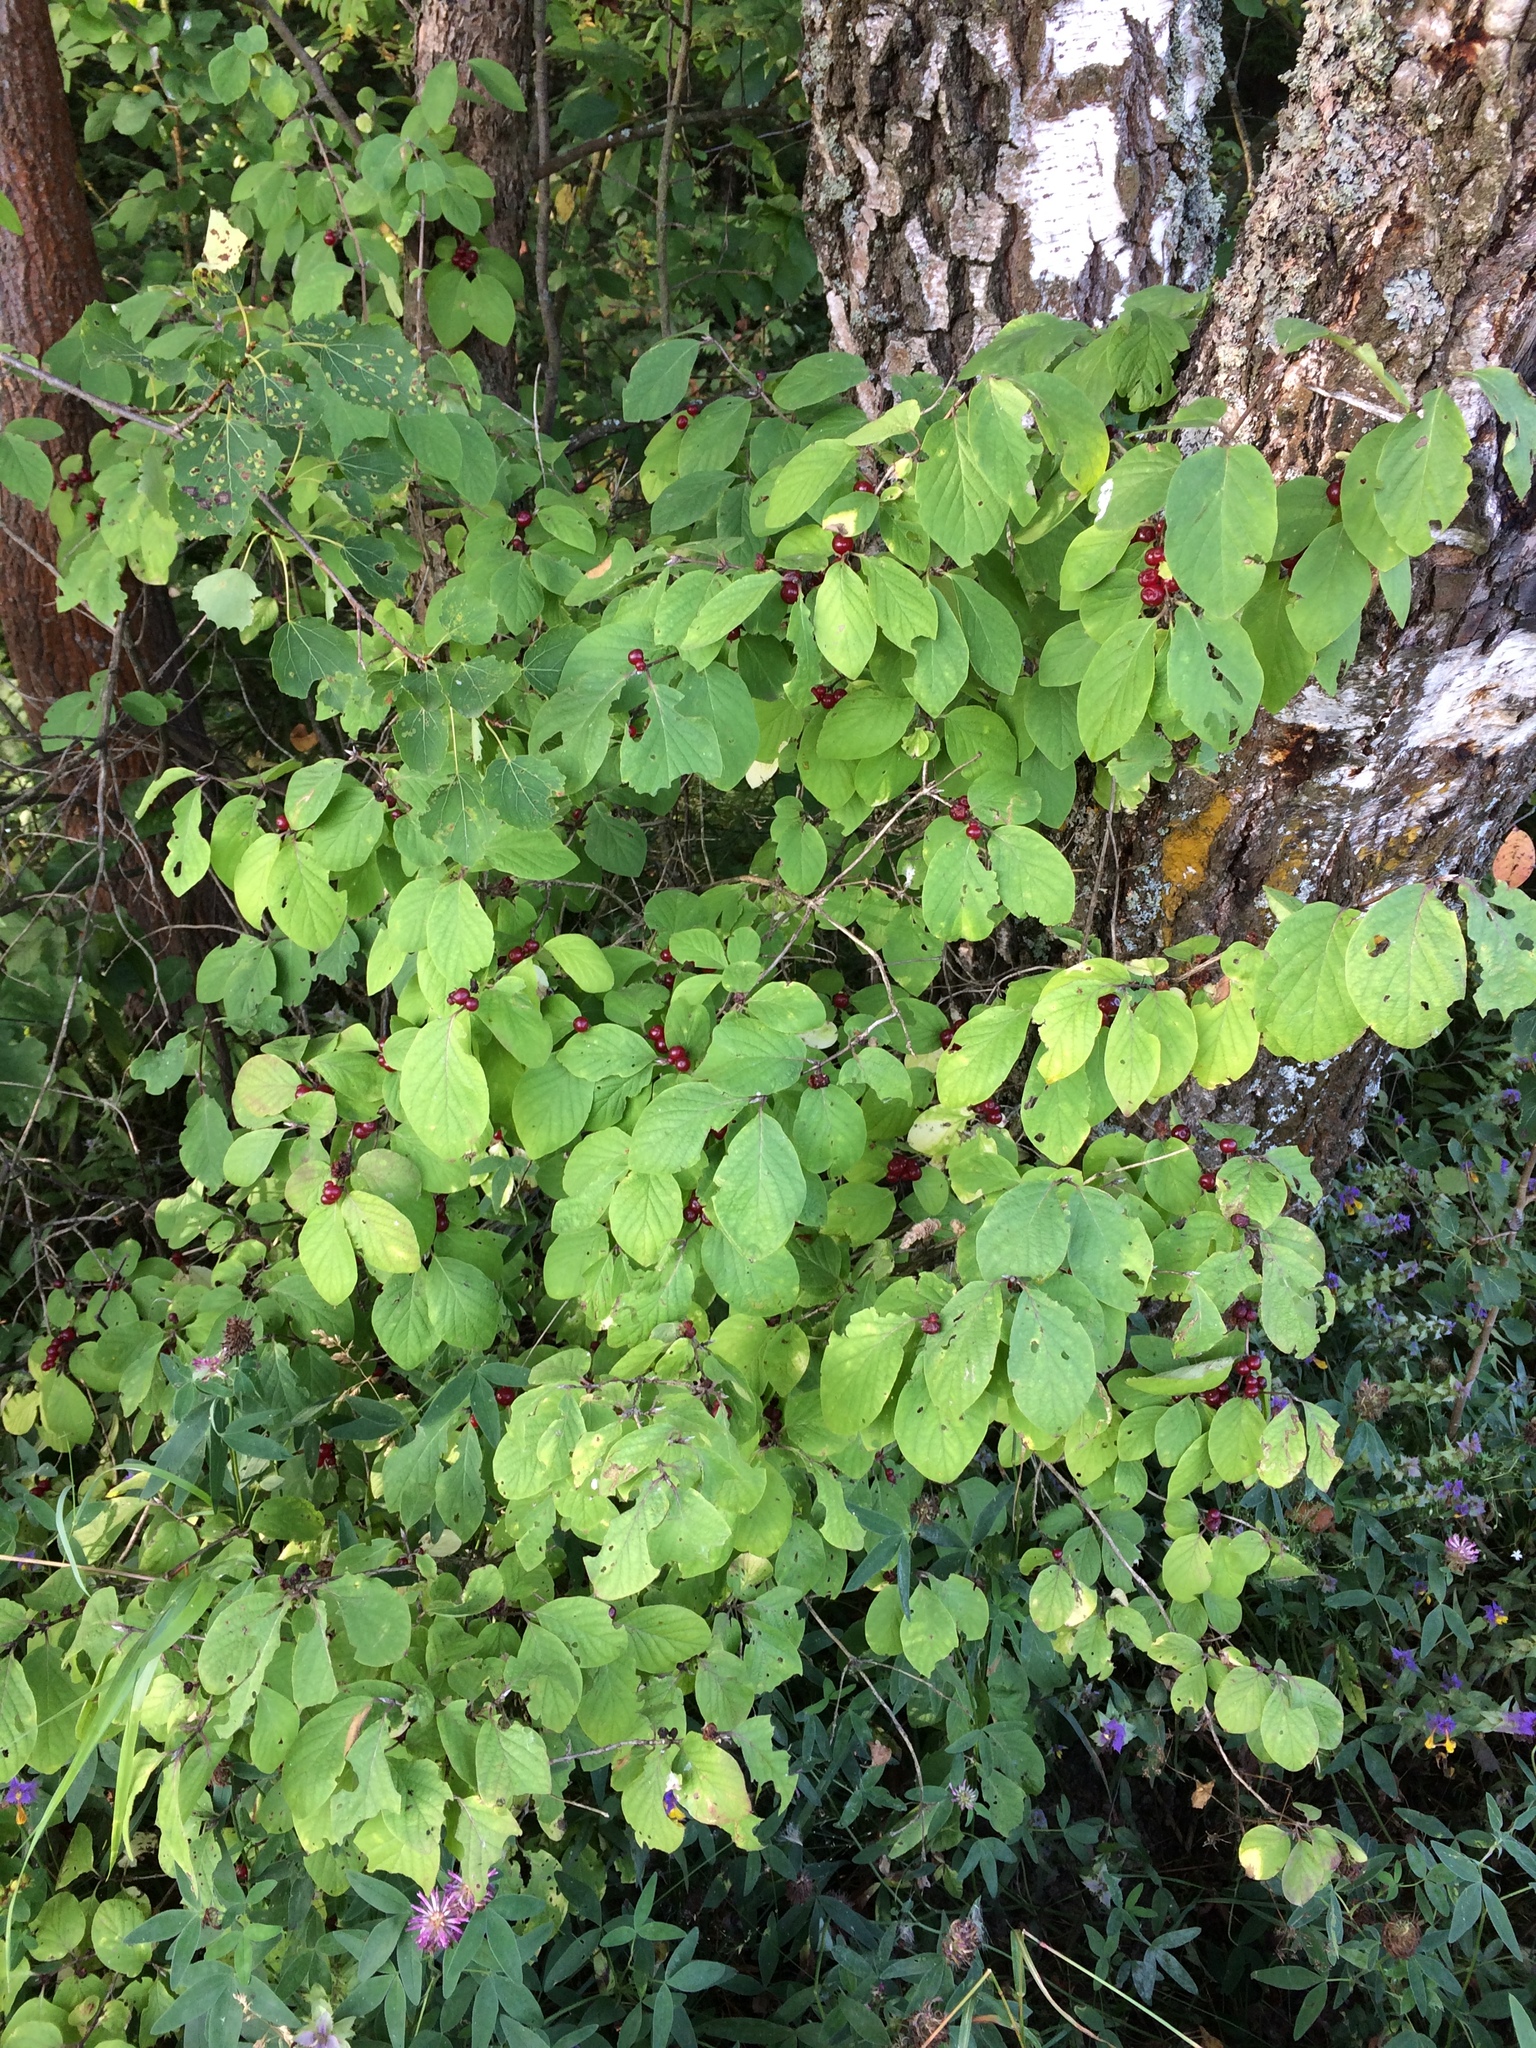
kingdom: Plantae
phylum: Tracheophyta
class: Magnoliopsida
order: Dipsacales
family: Caprifoliaceae
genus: Lonicera
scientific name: Lonicera xylosteum
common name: Fly honeysuckle
